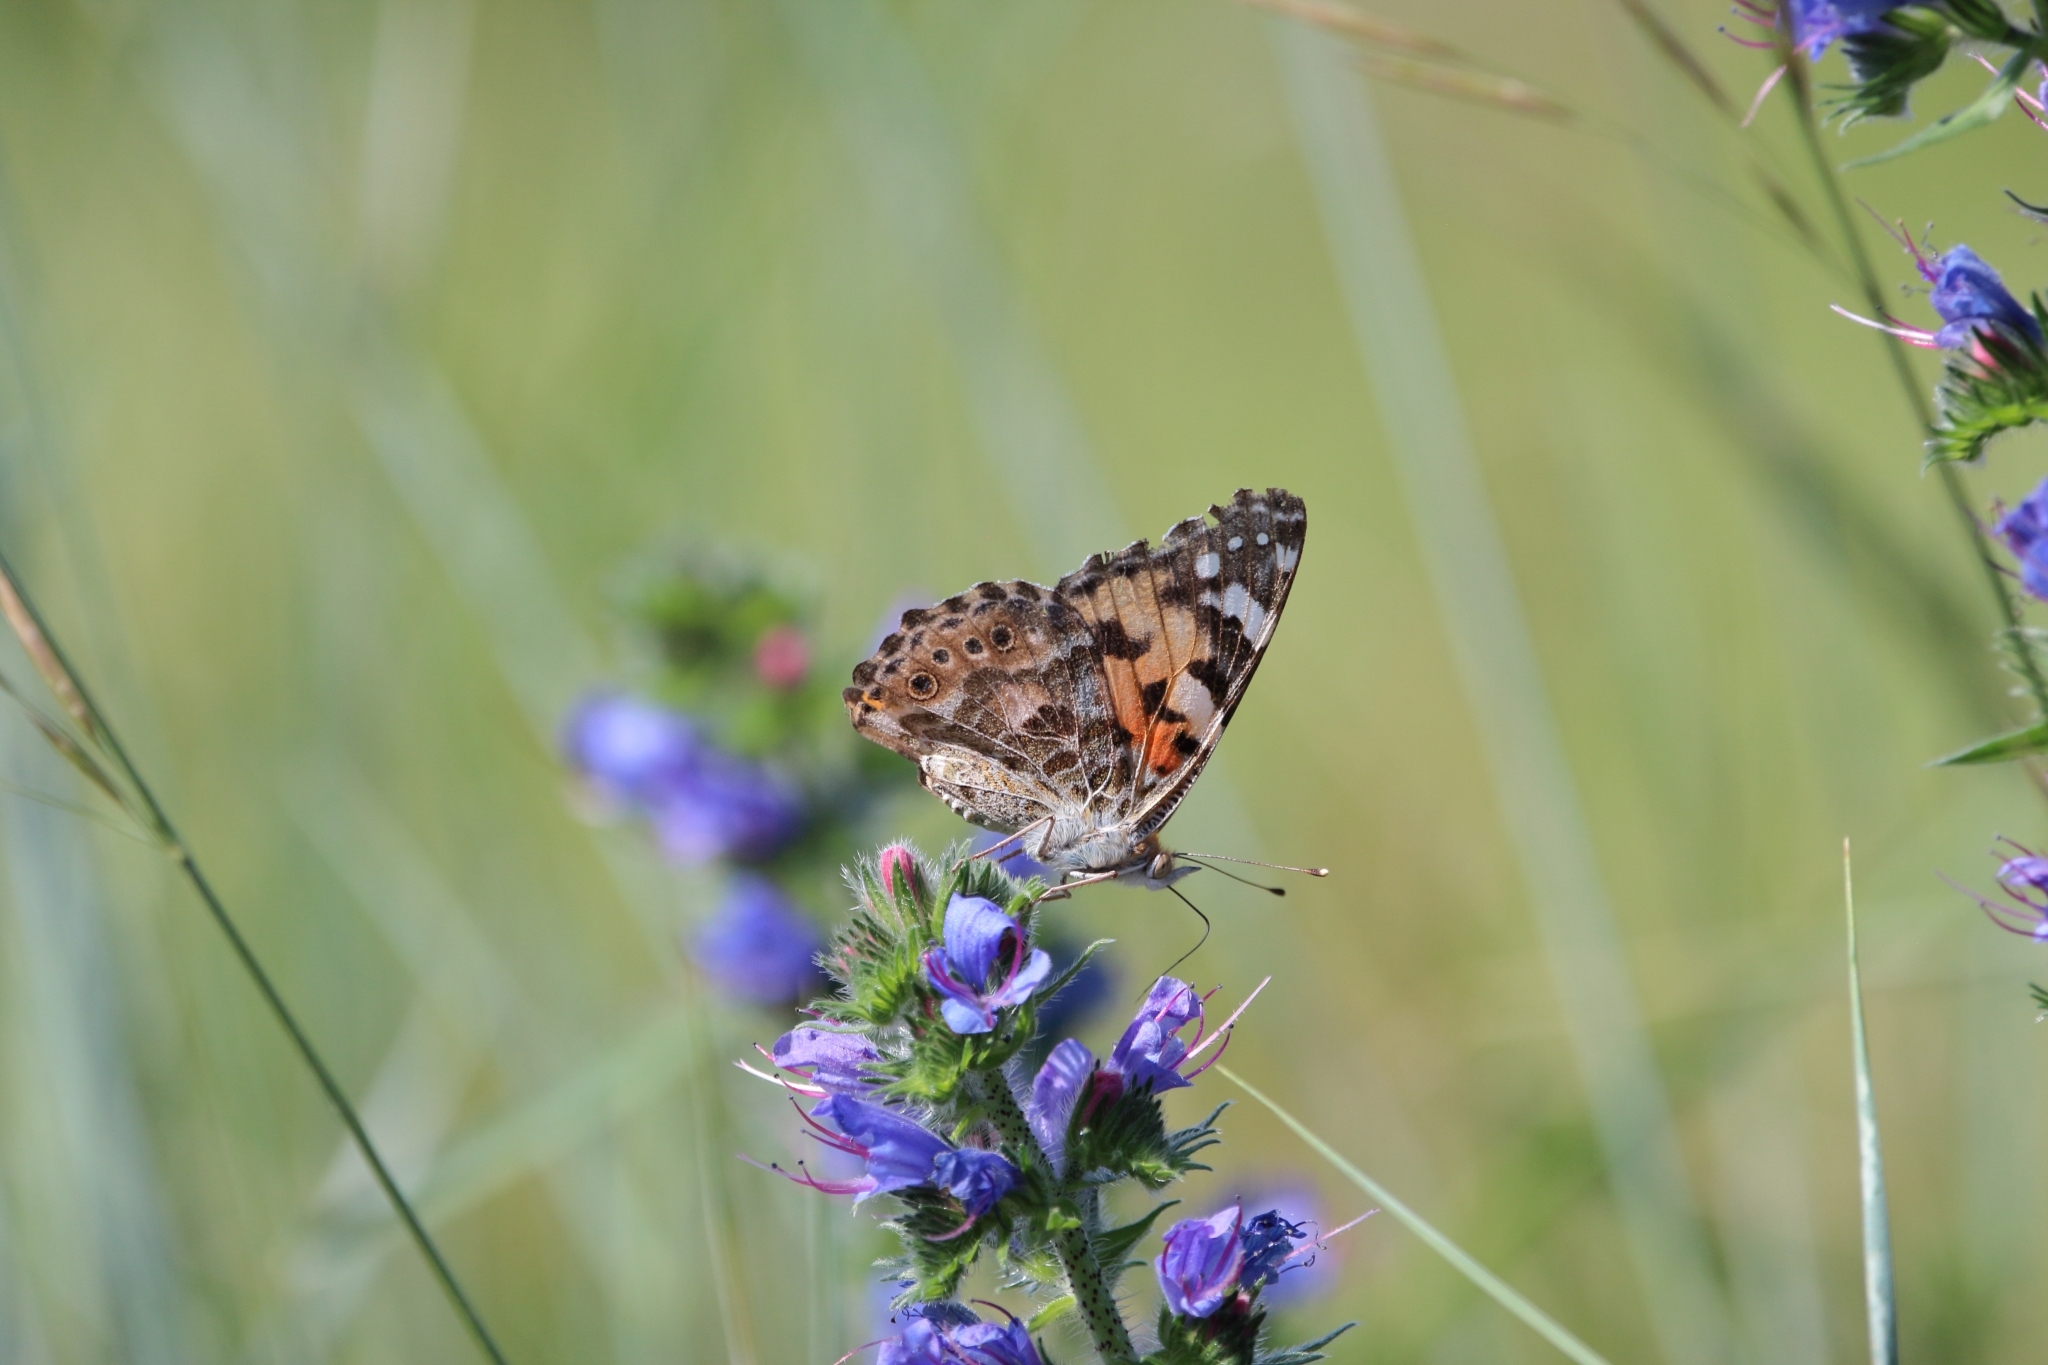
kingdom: Animalia
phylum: Arthropoda
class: Insecta
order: Lepidoptera
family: Nymphalidae
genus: Vanessa
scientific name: Vanessa cardui
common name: Painted lady
